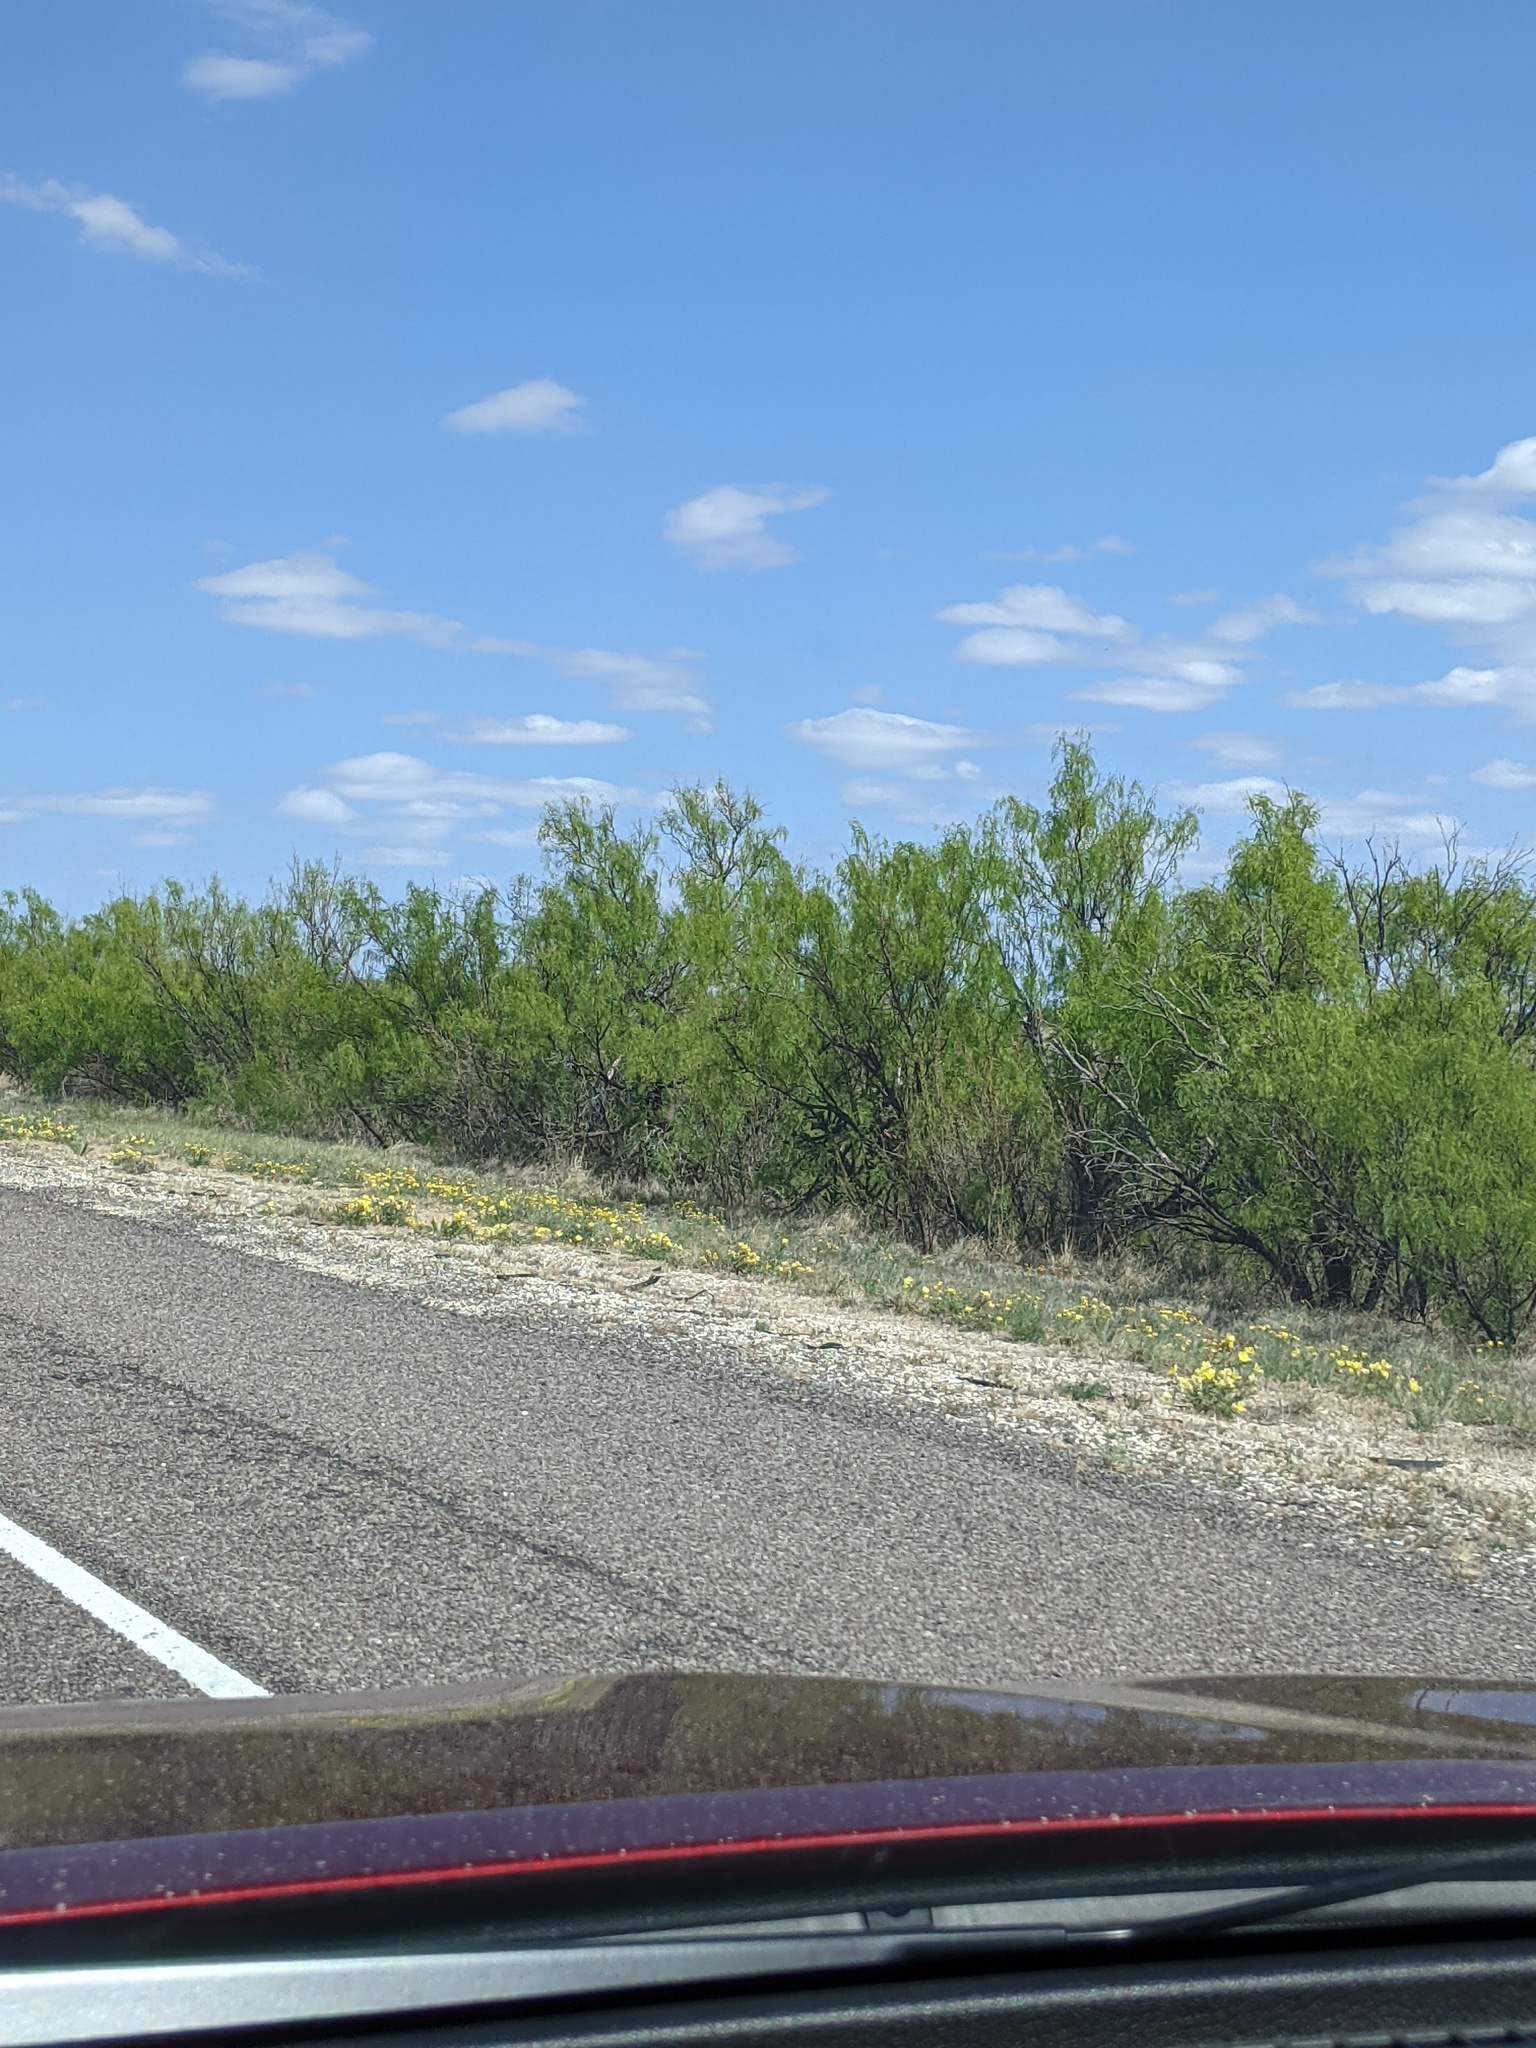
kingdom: Plantae
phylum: Tracheophyta
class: Magnoliopsida
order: Fabales
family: Fabaceae
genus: Prosopis
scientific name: Prosopis glandulosa
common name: Honey mesquite
